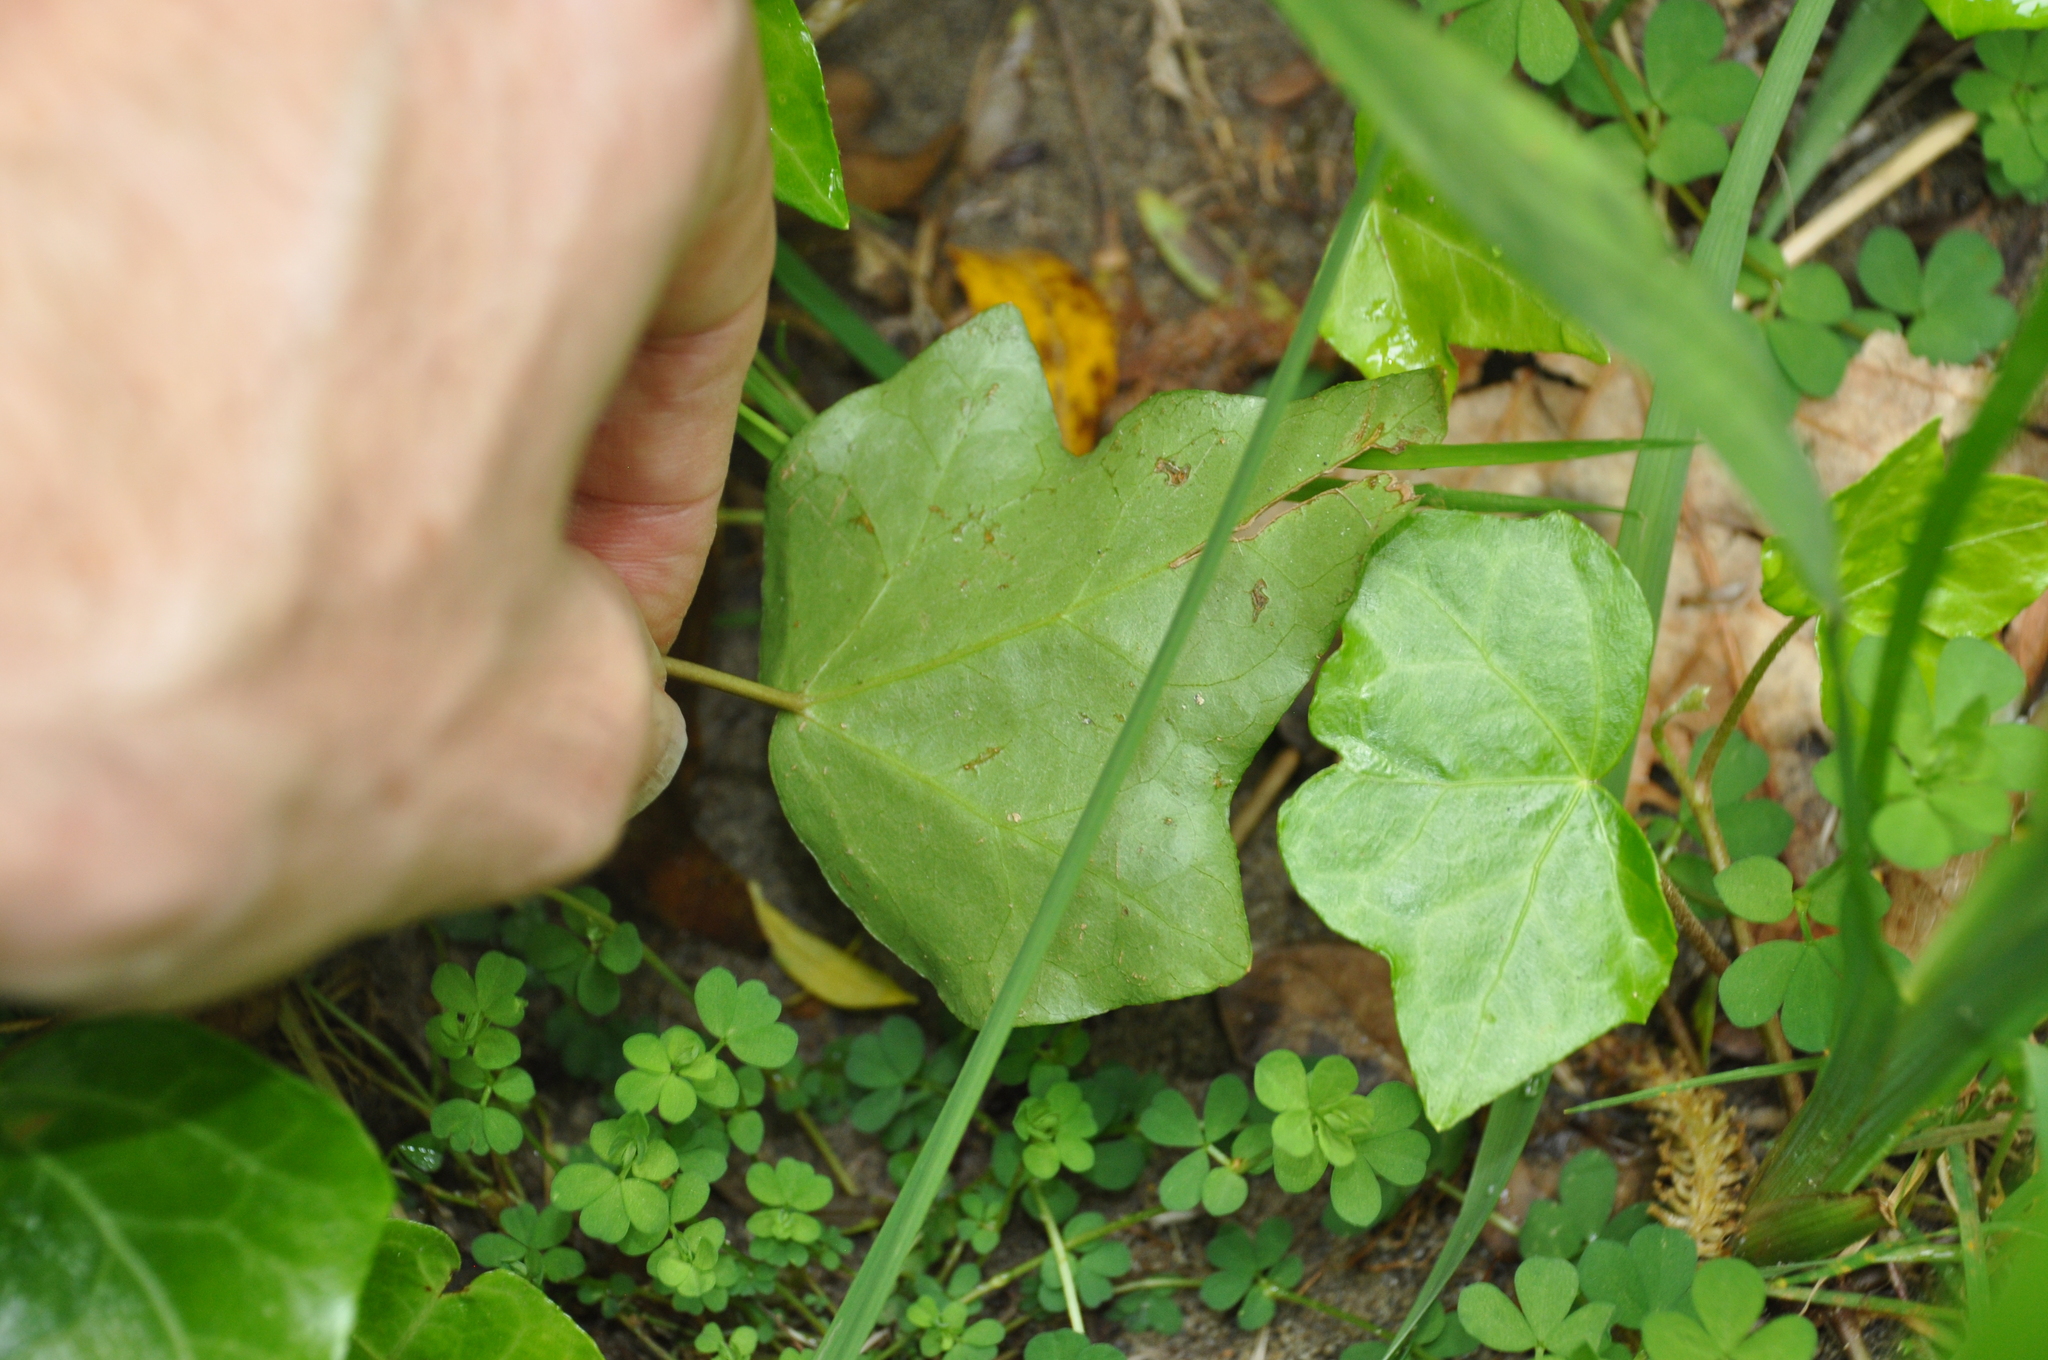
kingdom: Plantae
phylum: Tracheophyta
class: Magnoliopsida
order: Apiales
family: Araliaceae
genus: Hedera
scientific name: Hedera helix
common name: Ivy
